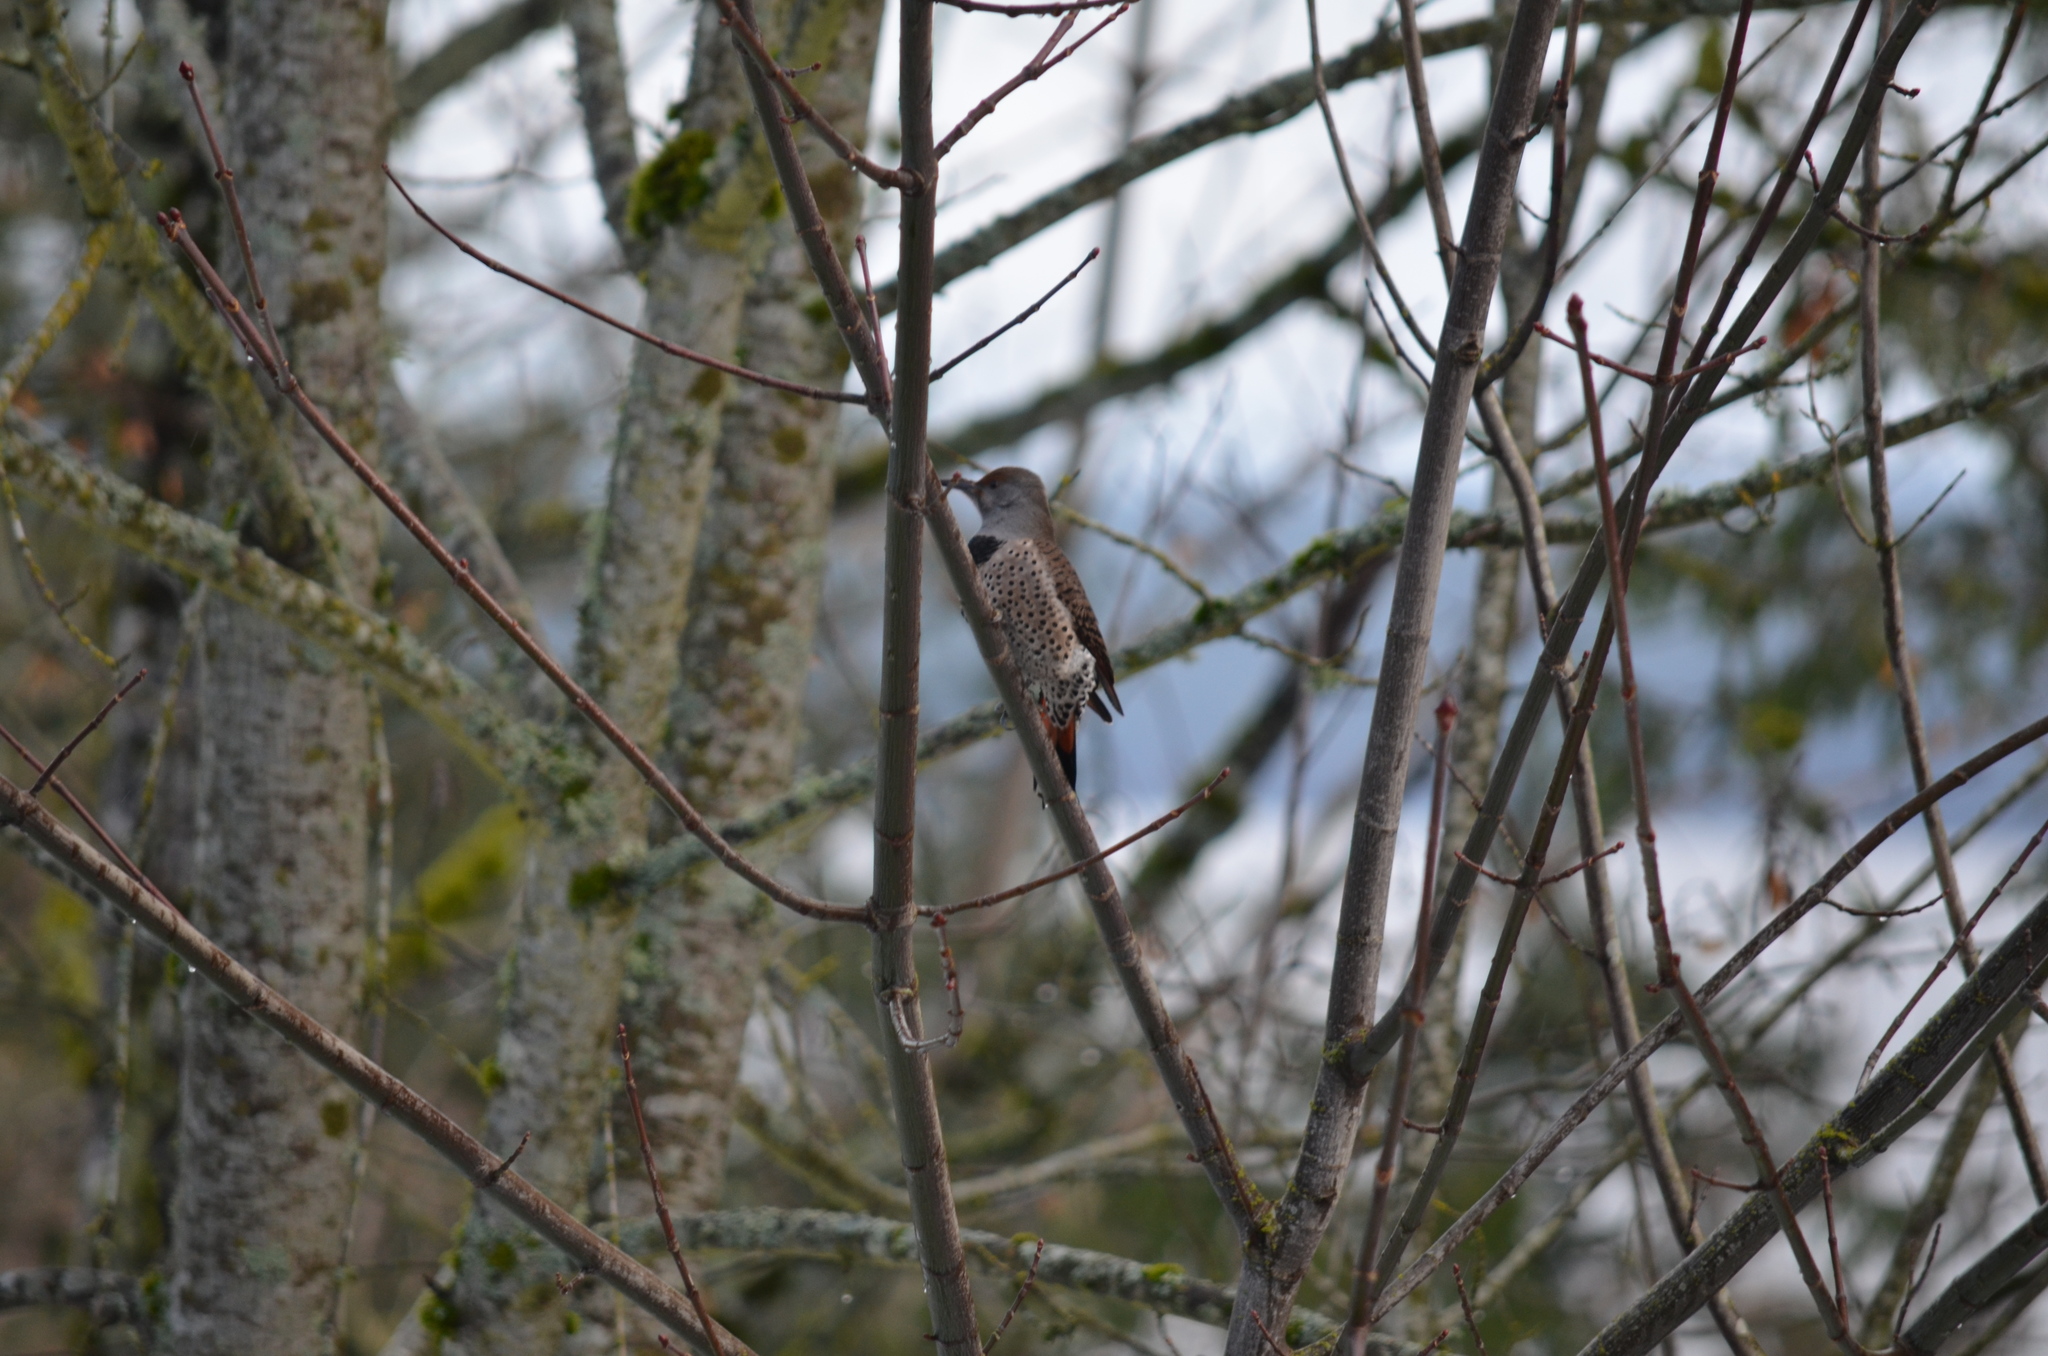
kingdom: Animalia
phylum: Chordata
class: Aves
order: Piciformes
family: Picidae
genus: Colaptes
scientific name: Colaptes auratus
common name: Northern flicker
